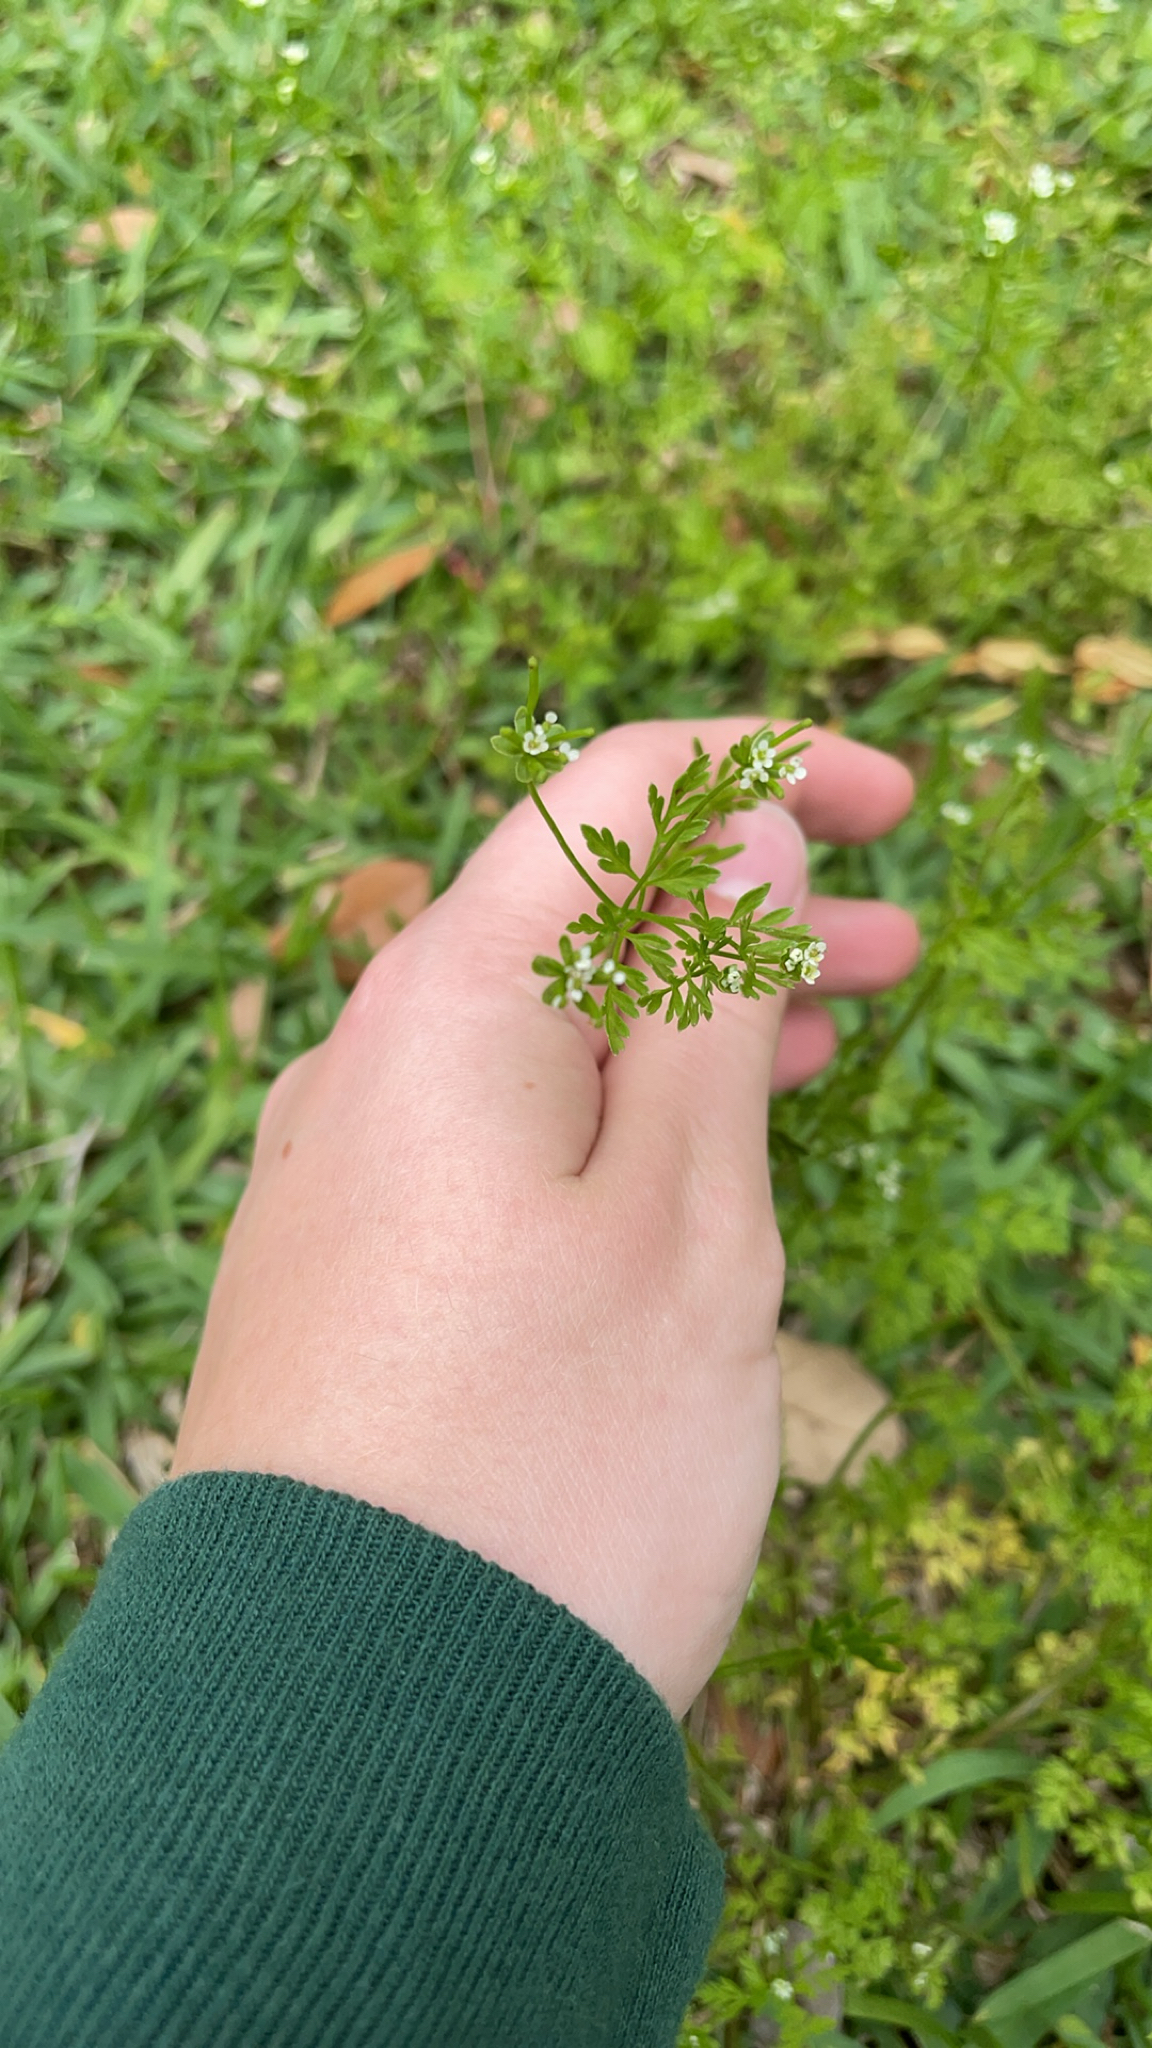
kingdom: Plantae
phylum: Tracheophyta
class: Magnoliopsida
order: Apiales
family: Apiaceae
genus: Chaerophyllum
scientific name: Chaerophyllum tainturieri
